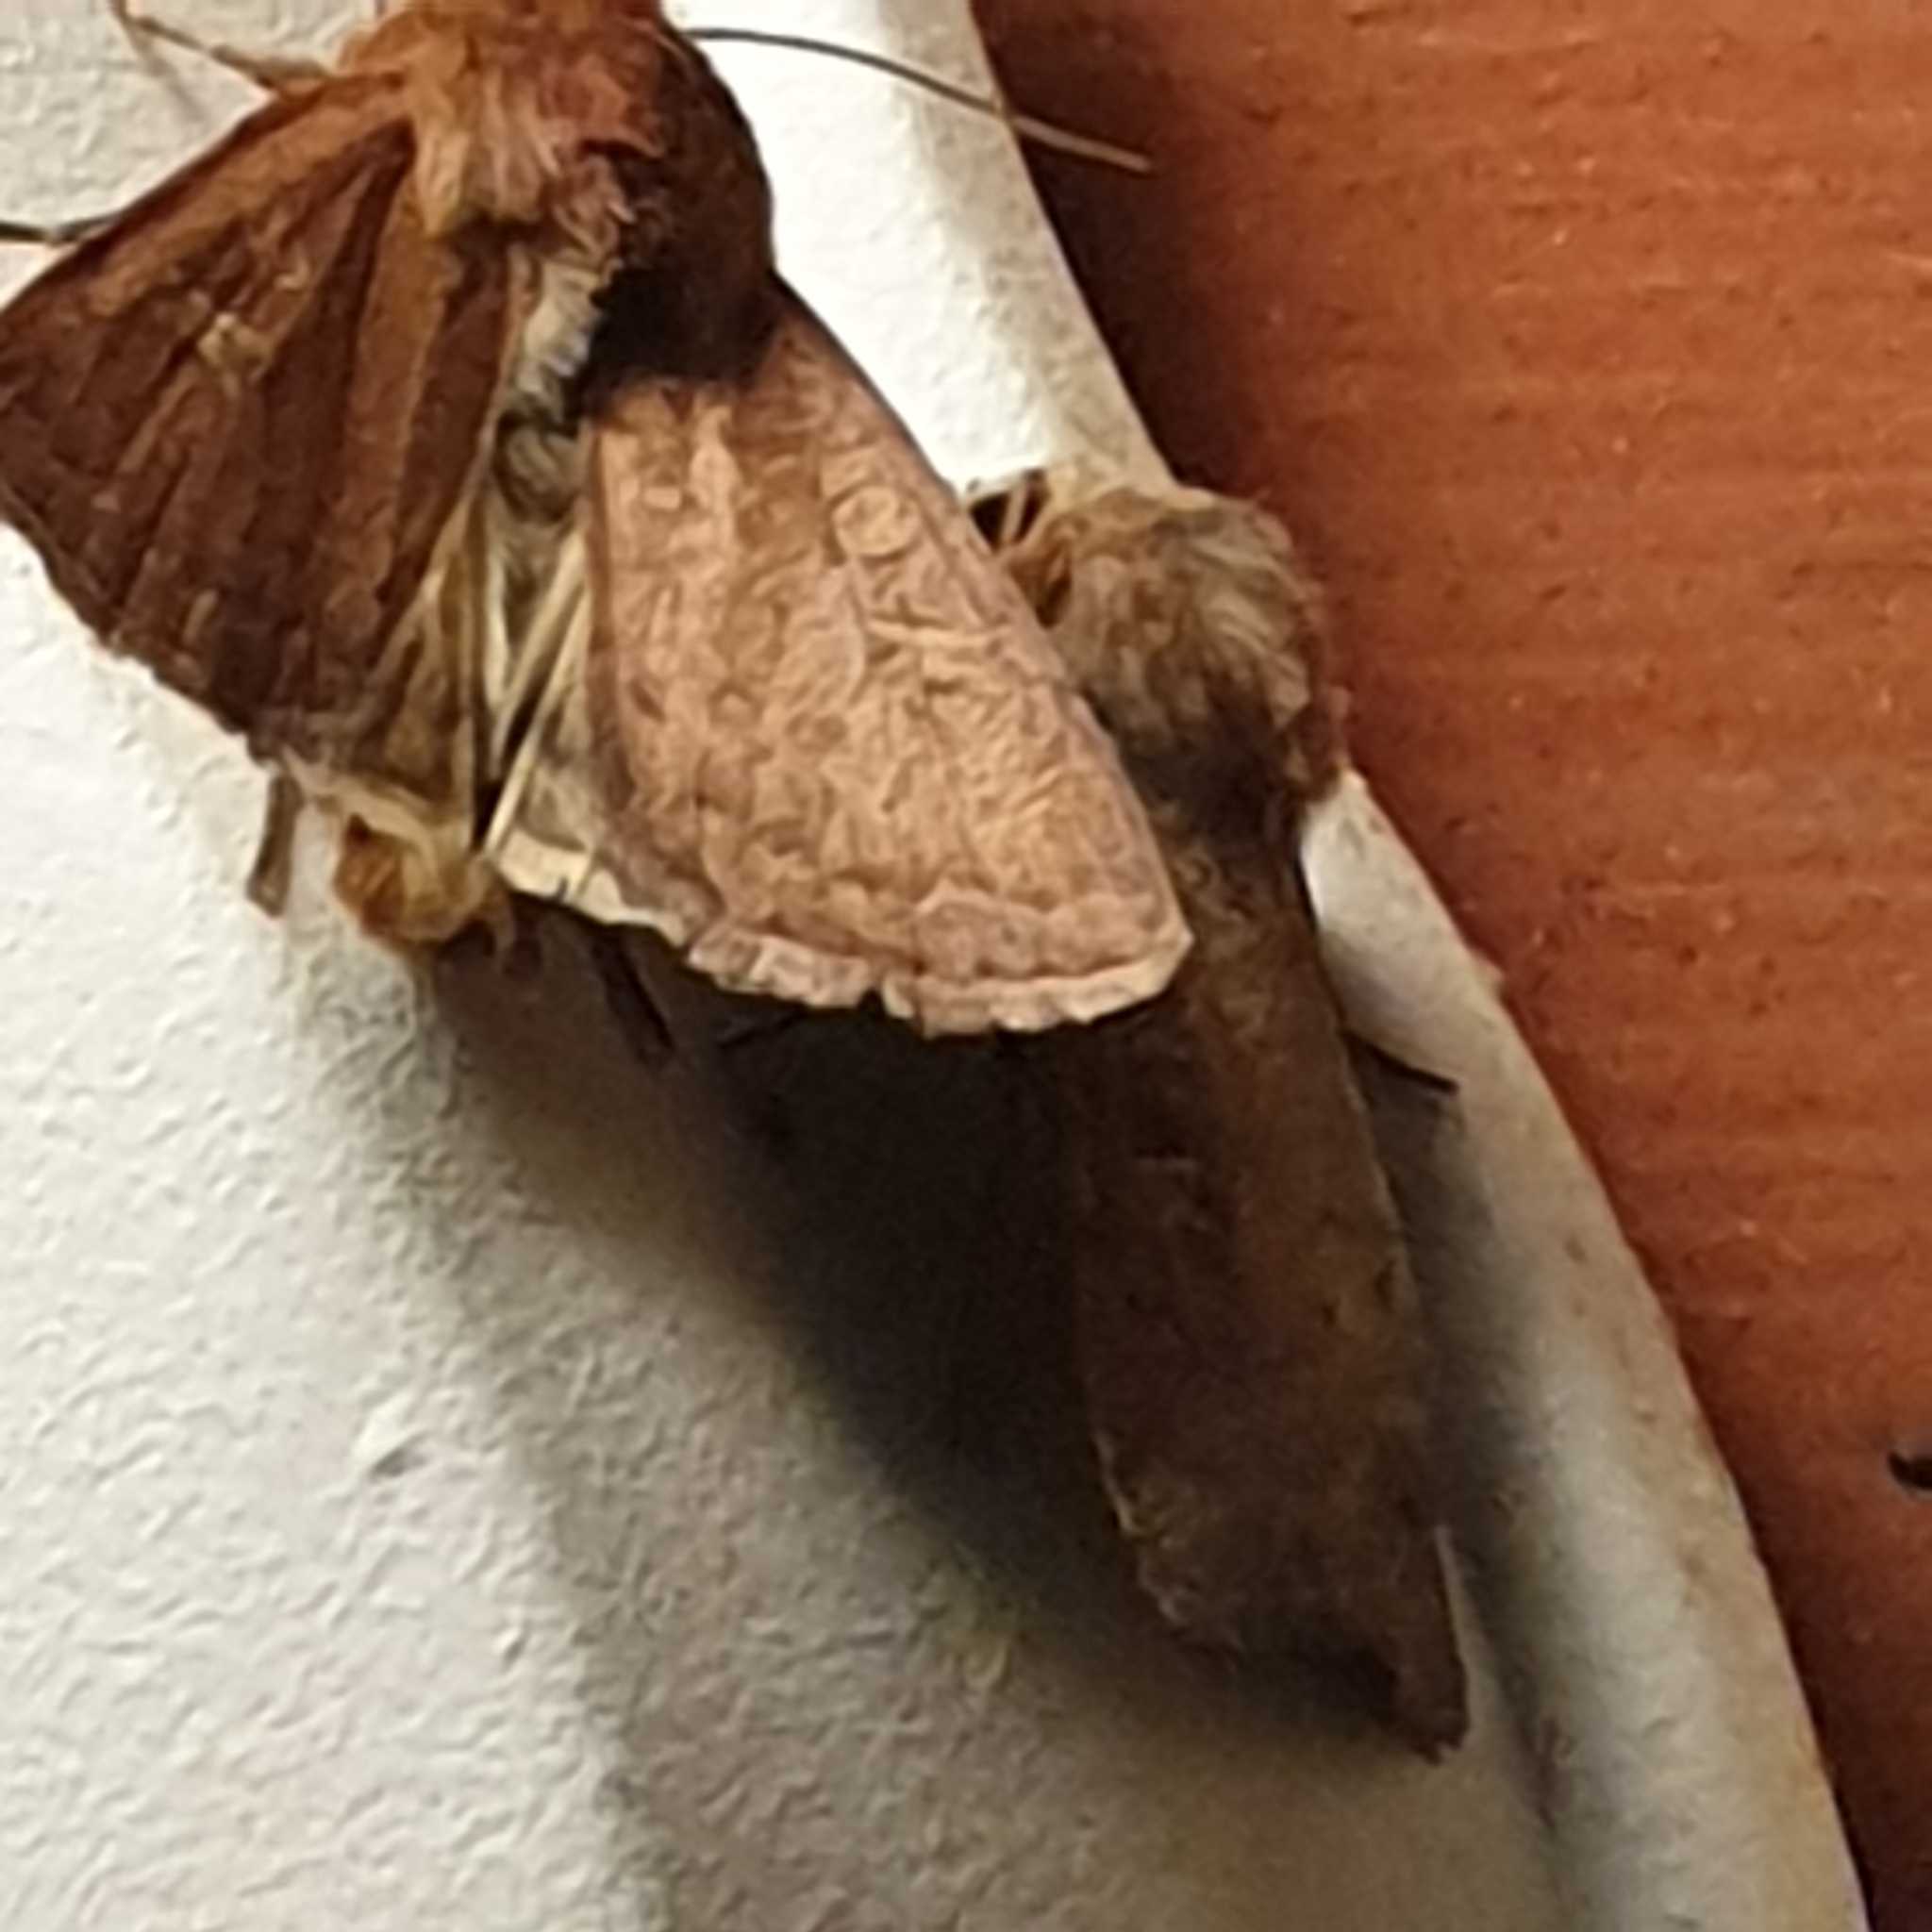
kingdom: Animalia
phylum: Arthropoda
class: Insecta
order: Lepidoptera
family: Noctuidae
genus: Xestia
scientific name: Xestia xanthographa
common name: Square-spot rustic
